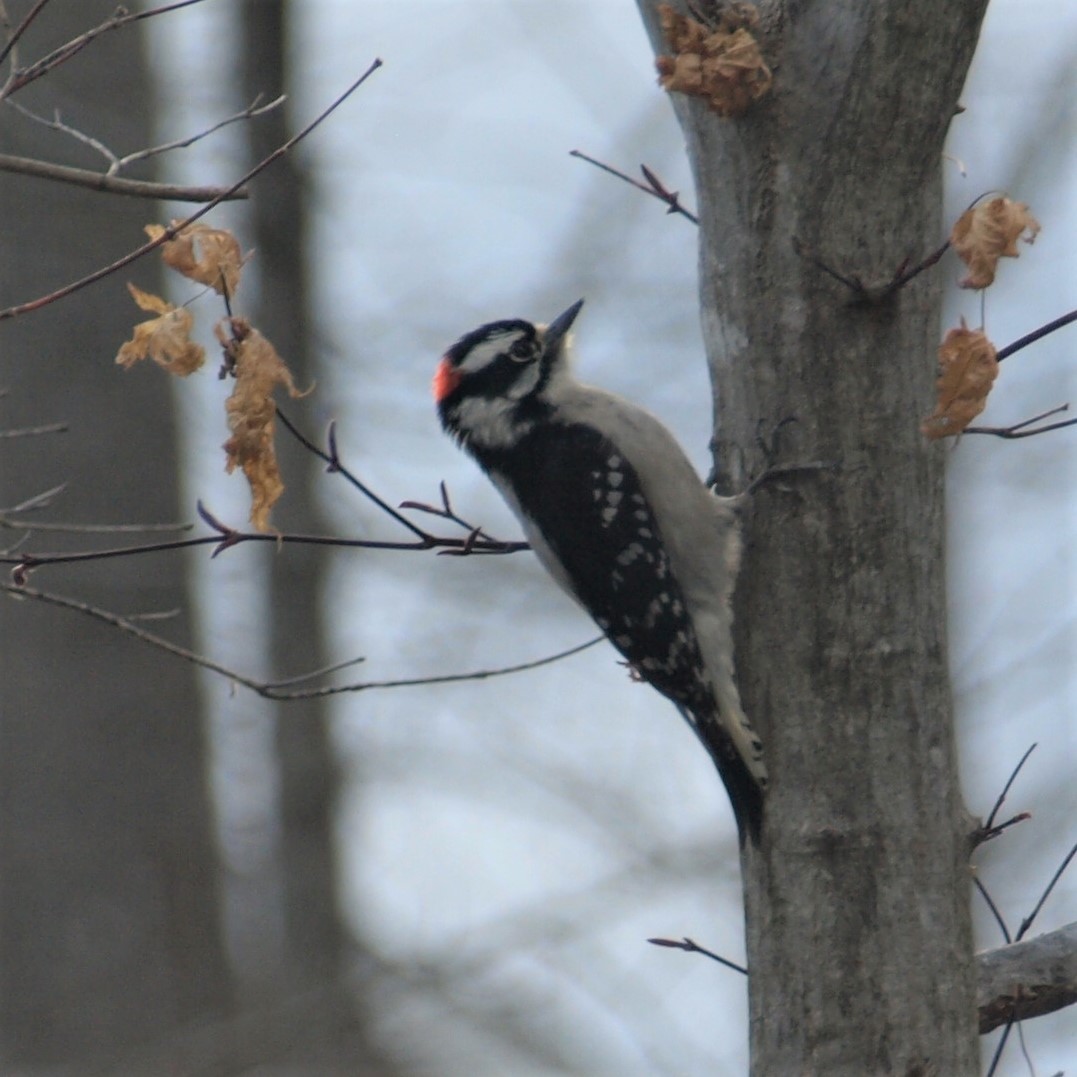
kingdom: Animalia
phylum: Chordata
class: Aves
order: Piciformes
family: Picidae
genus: Dryobates
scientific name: Dryobates pubescens
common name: Downy woodpecker
